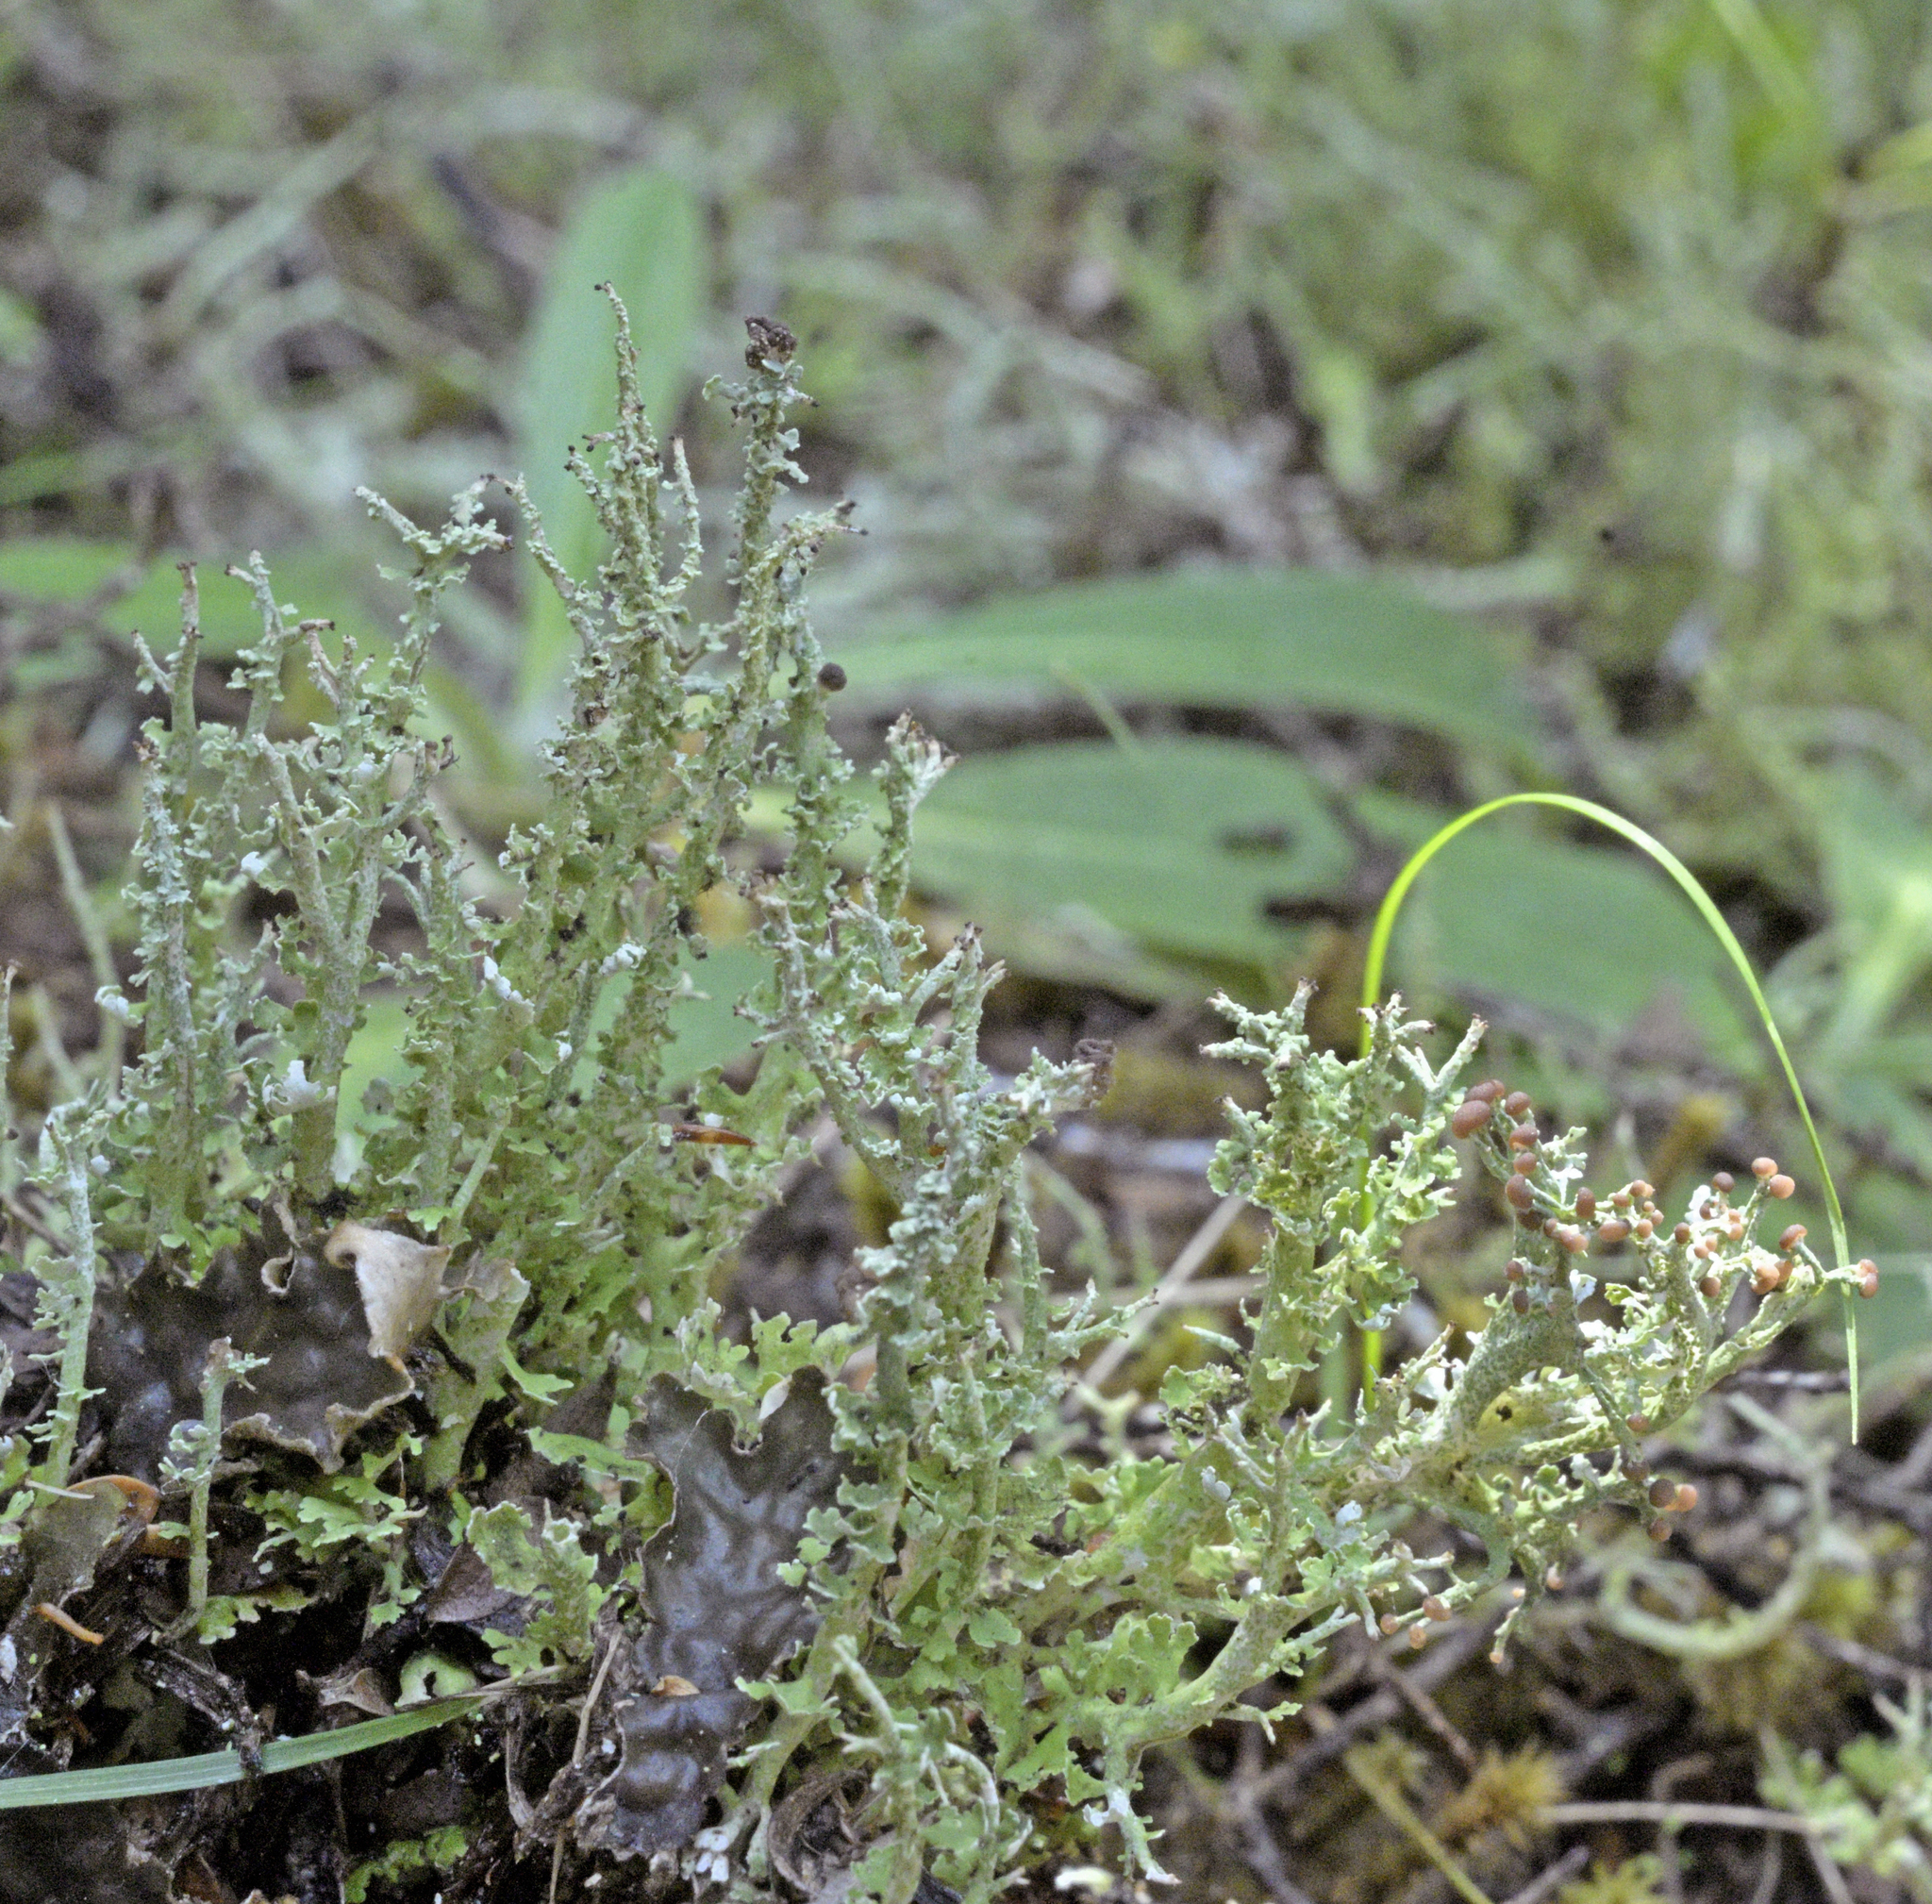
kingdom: Fungi
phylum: Ascomycota
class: Lecanoromycetes
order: Lecanorales
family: Cladoniaceae
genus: Cladonia
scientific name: Cladonia darwinii
